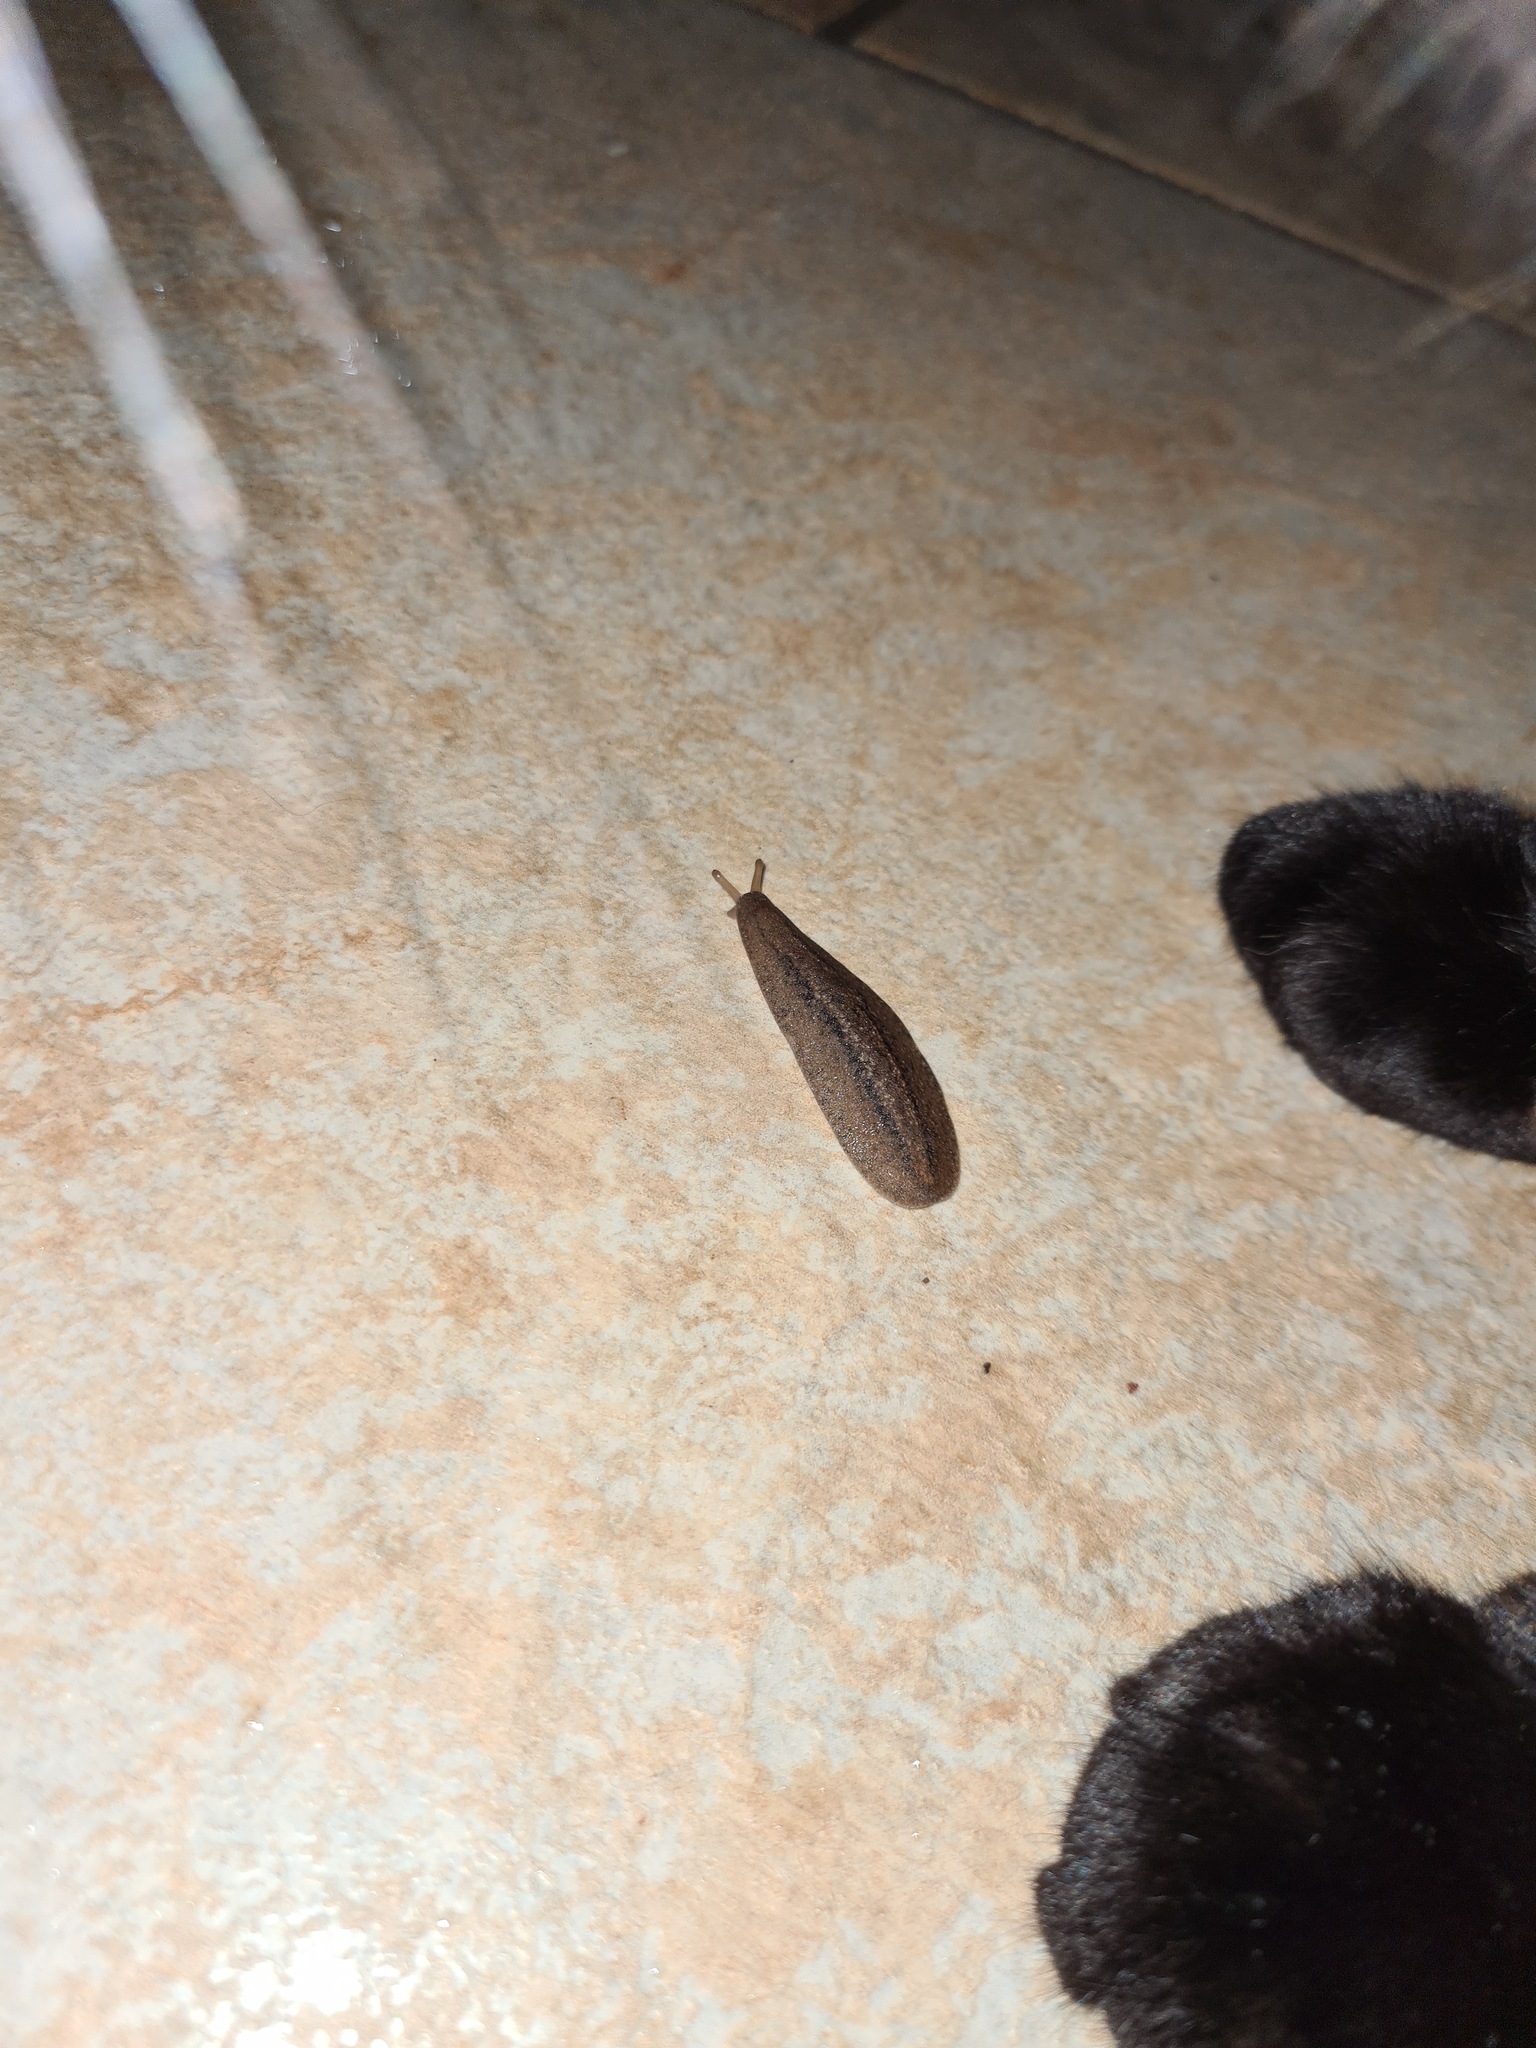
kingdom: Animalia
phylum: Mollusca
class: Gastropoda
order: Systellommatophora
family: Veronicellidae
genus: Phyllocaulis
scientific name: Phyllocaulis soleiformis
